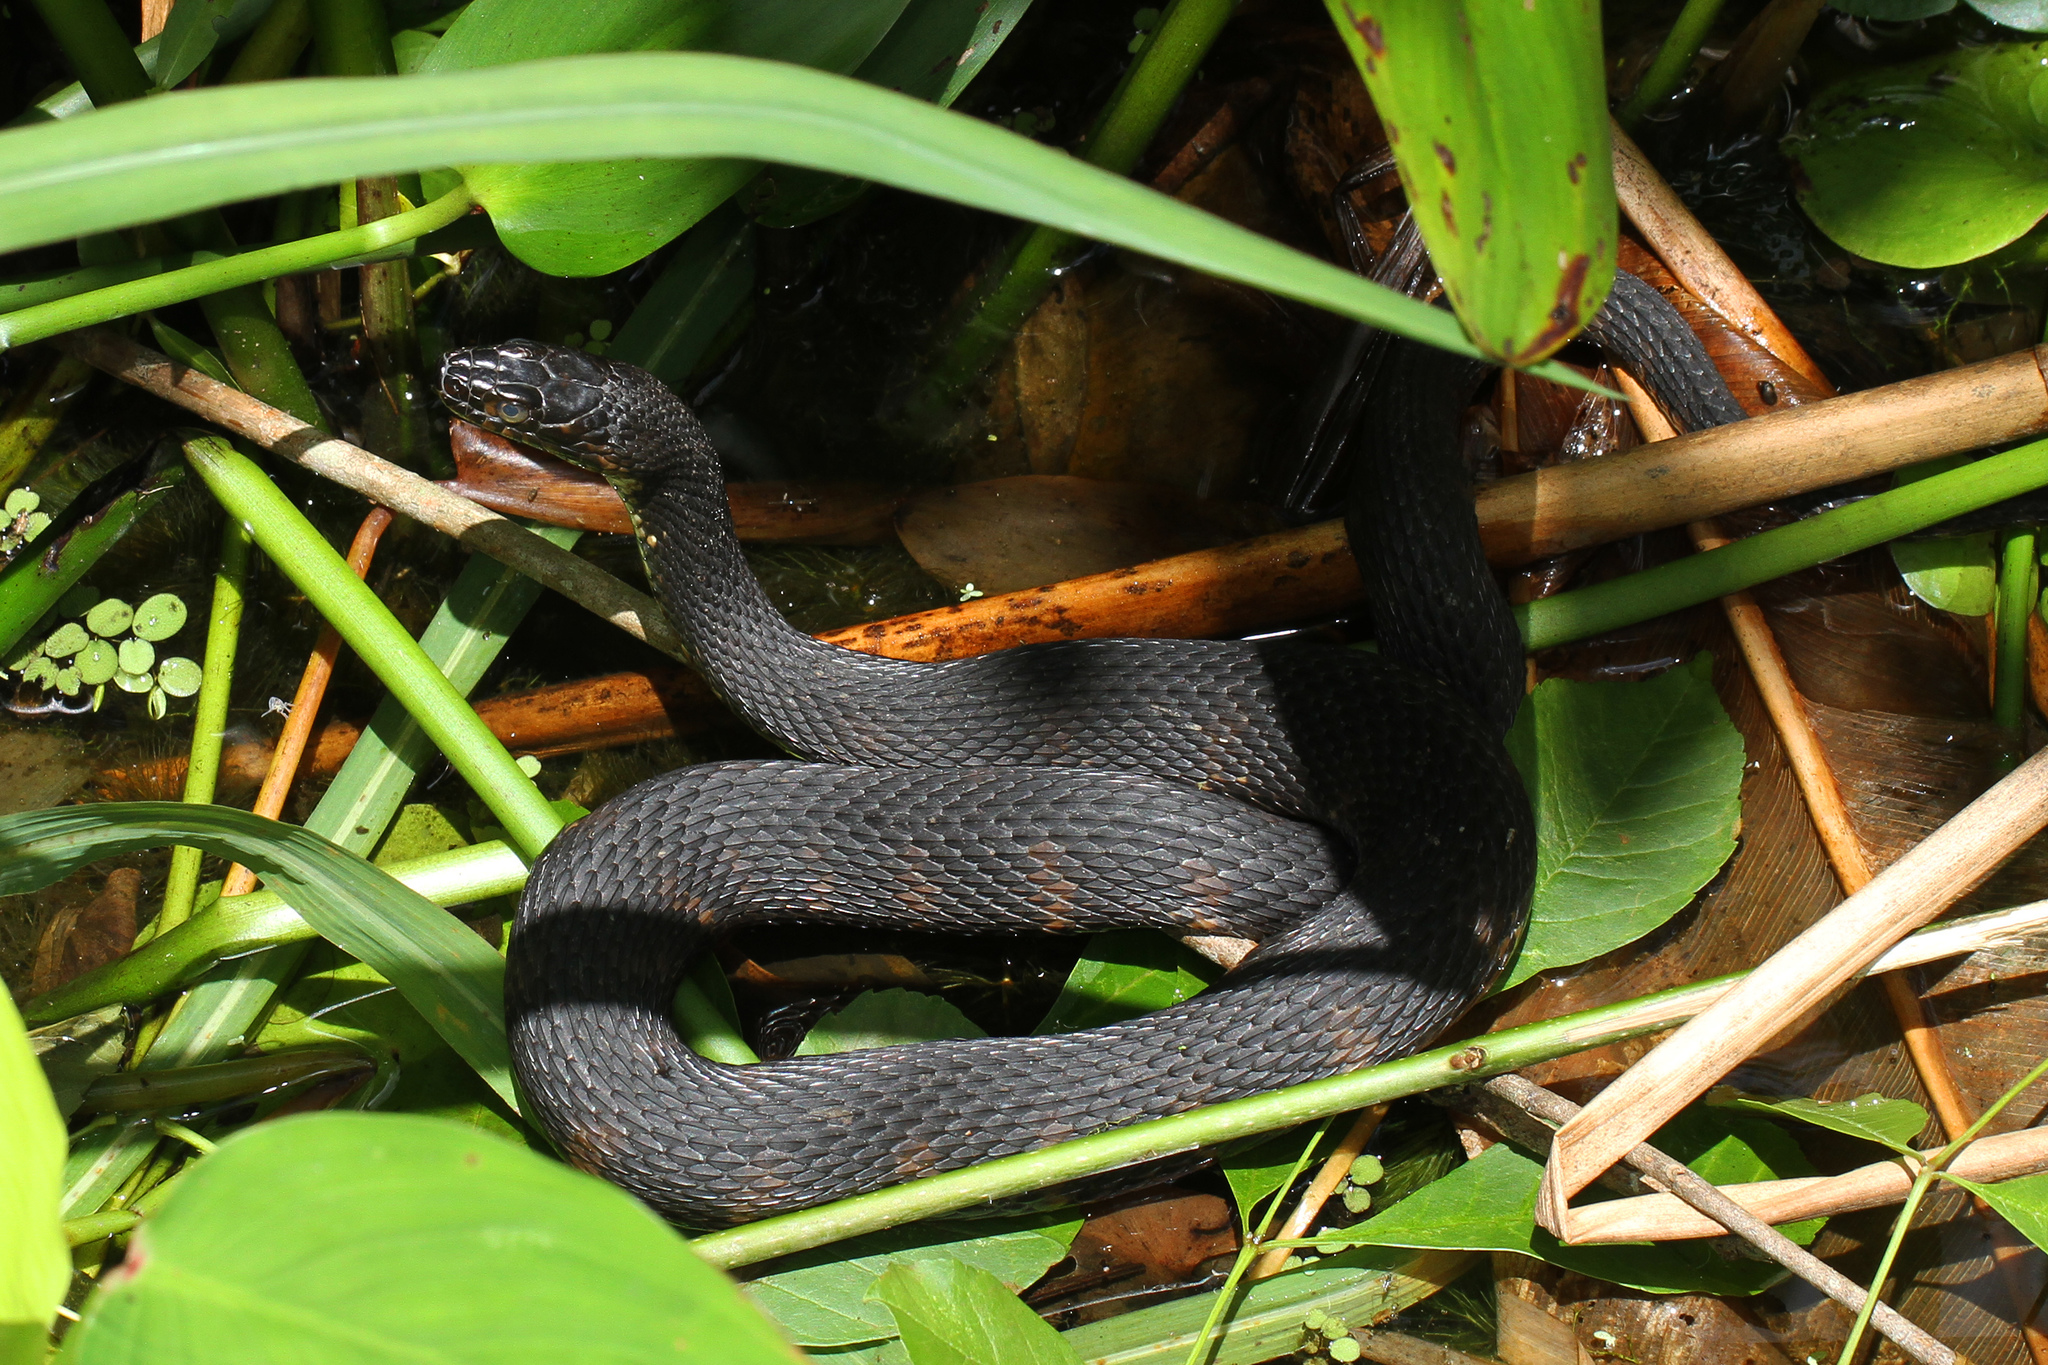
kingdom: Animalia
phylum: Chordata
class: Squamata
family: Colubridae
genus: Nerodia
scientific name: Nerodia fasciata
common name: Southern water snake
